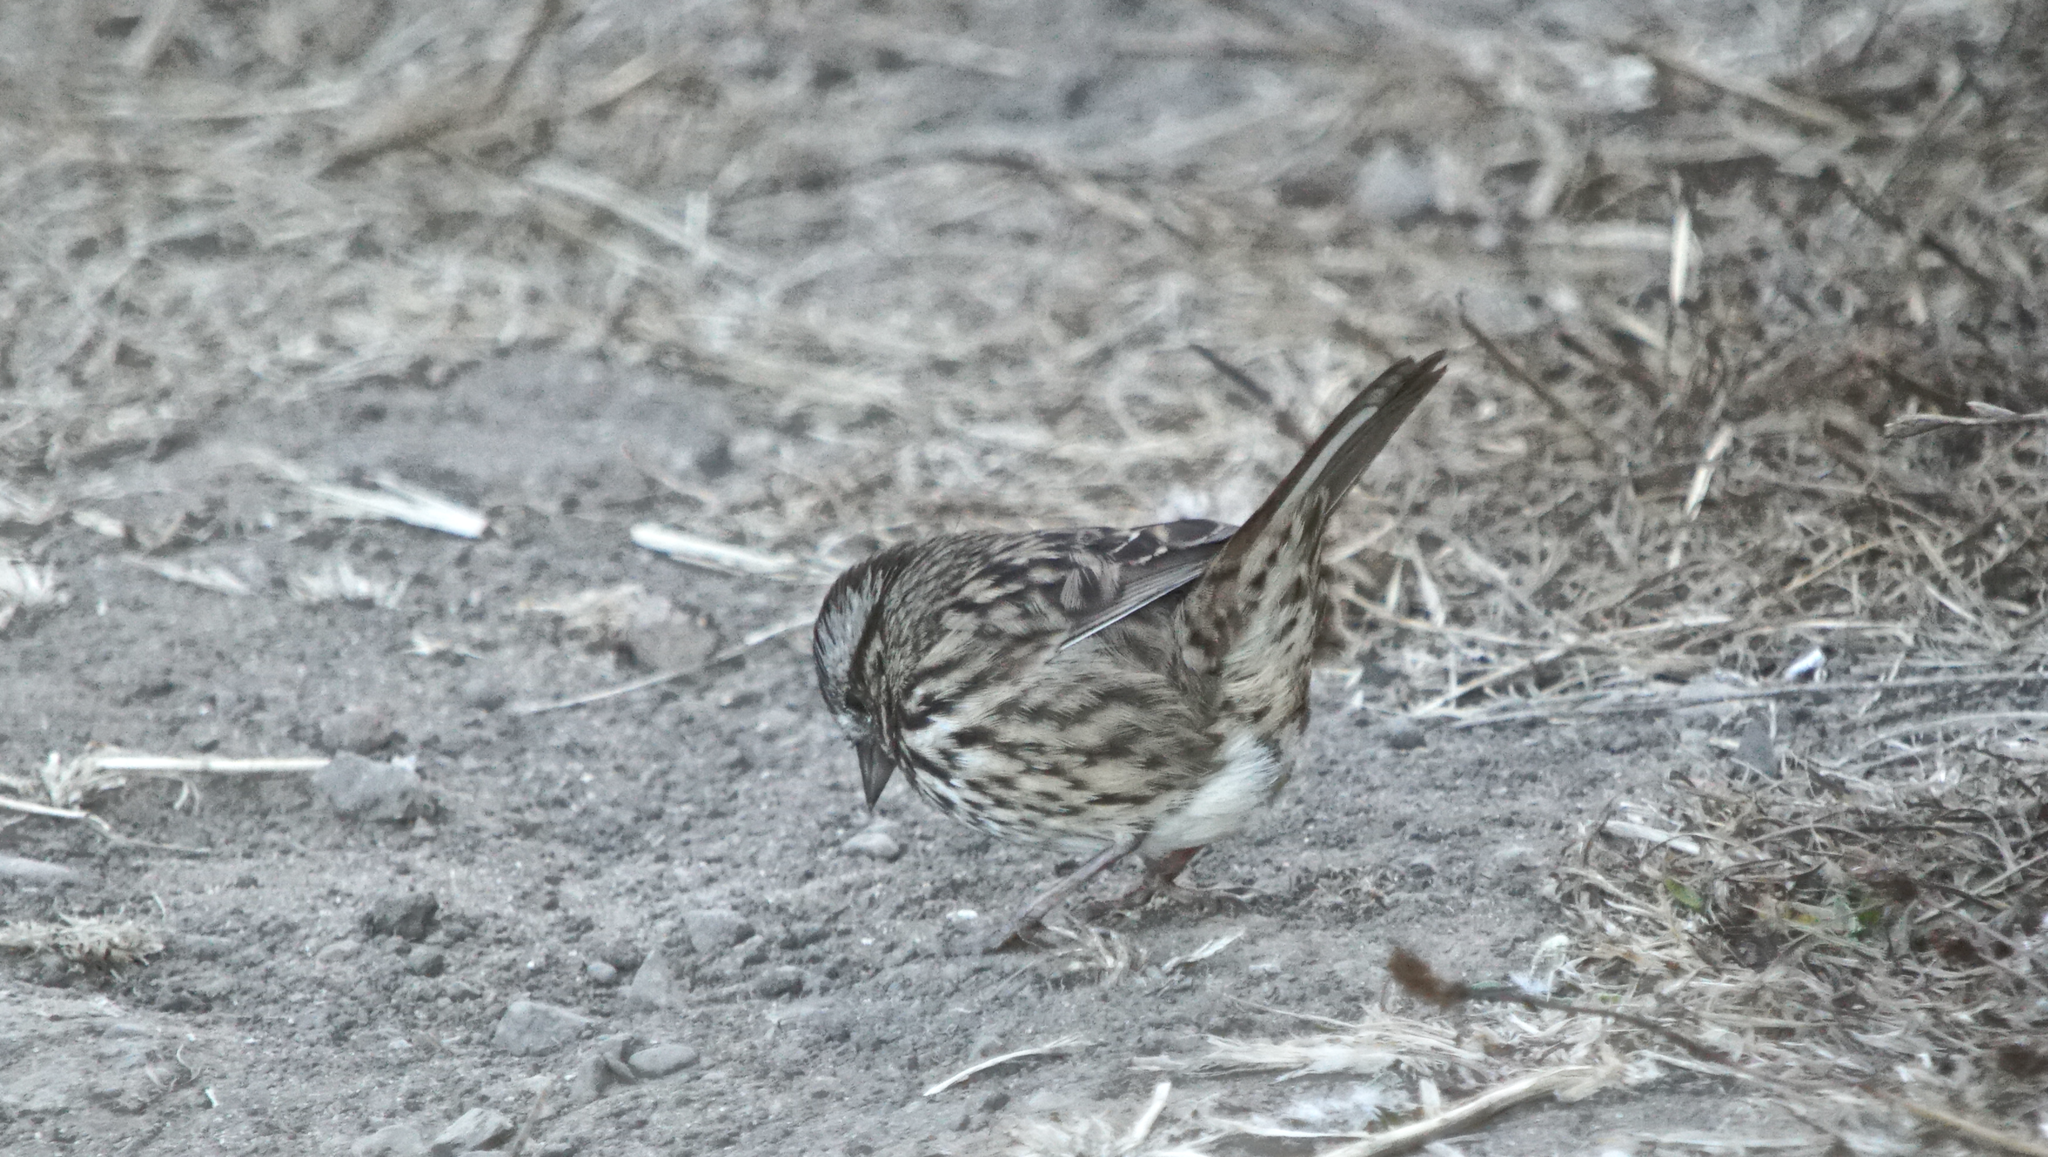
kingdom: Animalia
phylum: Chordata
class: Aves
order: Passeriformes
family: Passerellidae
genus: Melospiza
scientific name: Melospiza melodia
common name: Song sparrow
